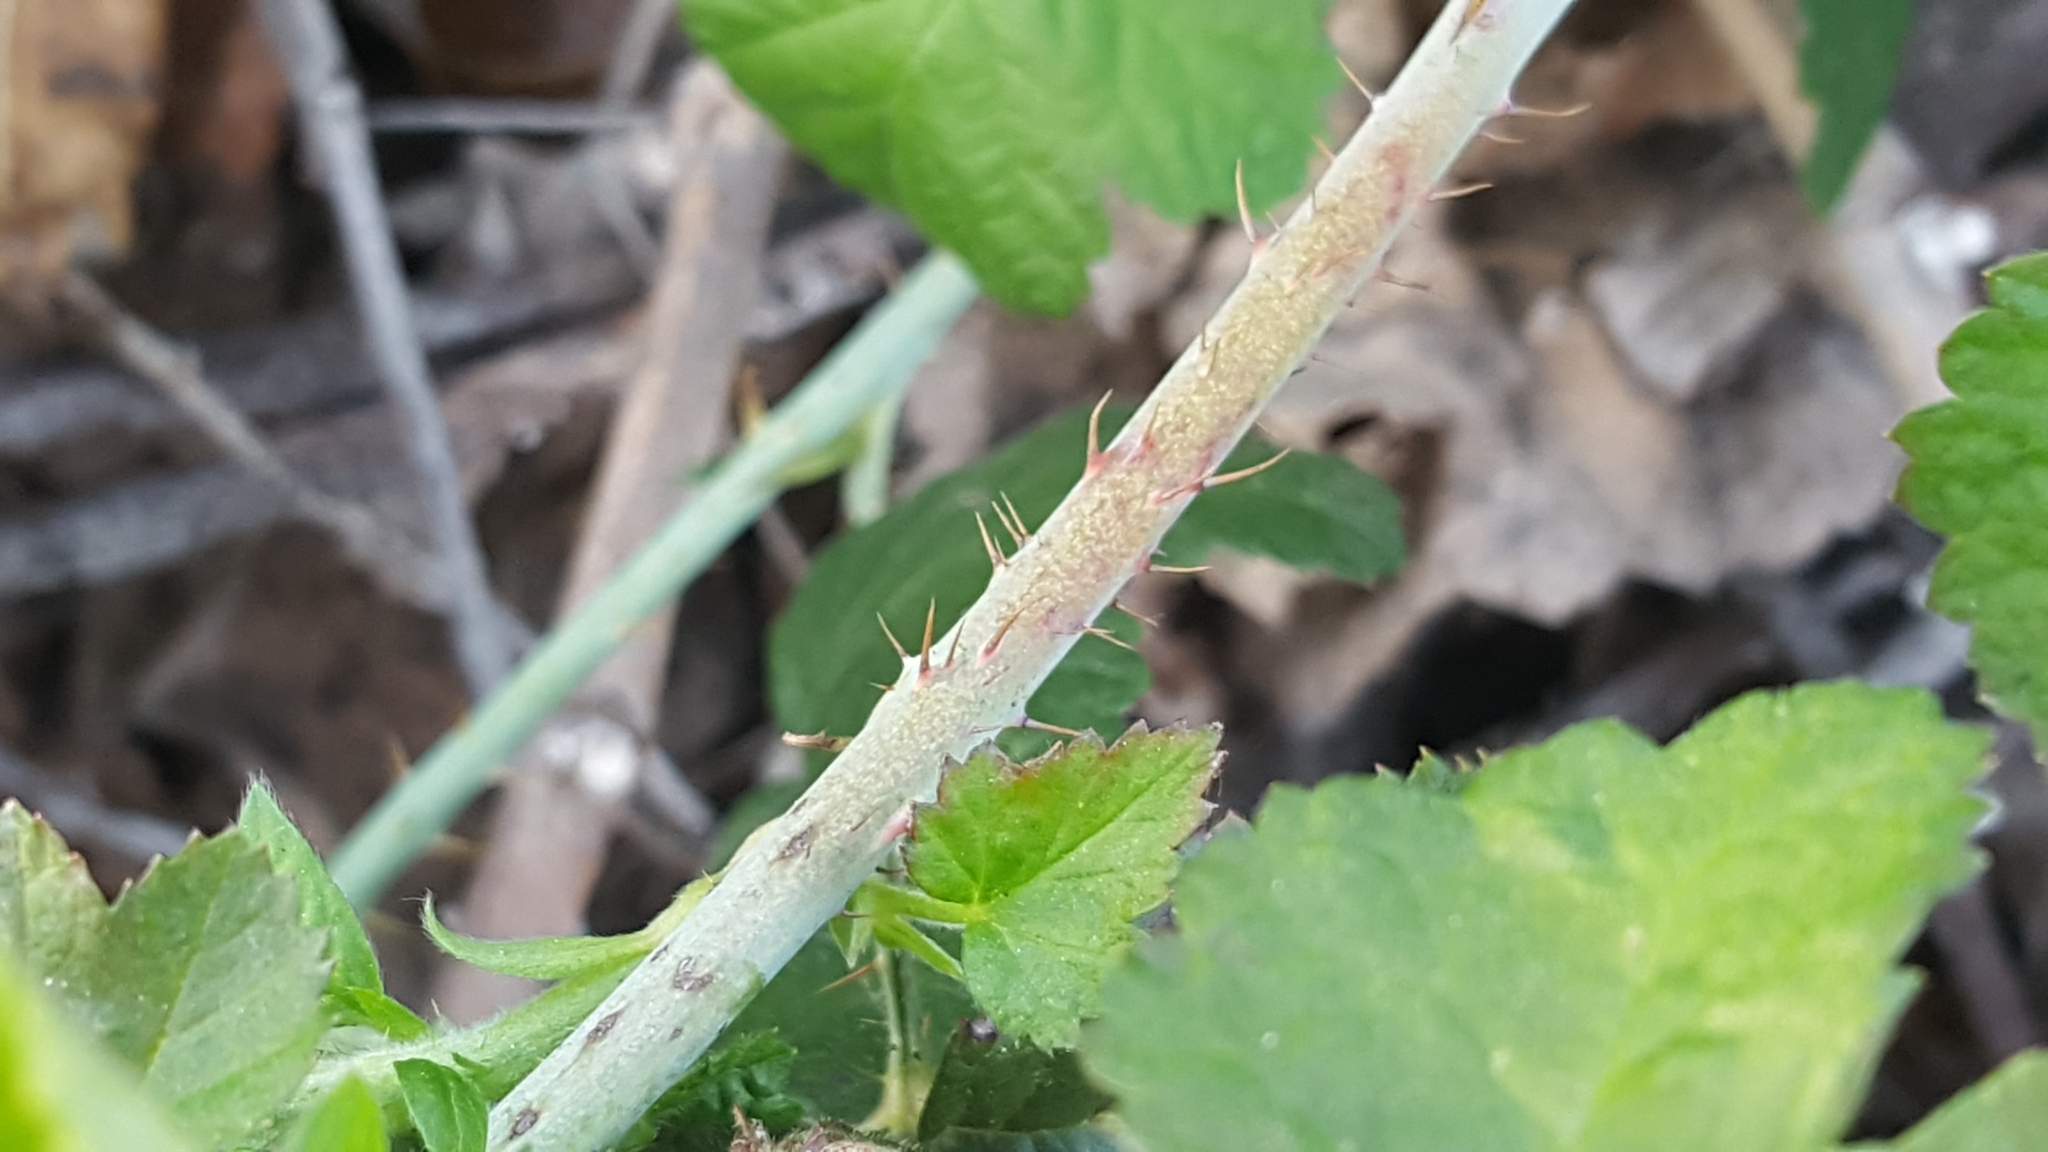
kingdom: Plantae
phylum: Tracheophyta
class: Magnoliopsida
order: Rosales
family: Rosaceae
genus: Rubus
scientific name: Rubus ursinus
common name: Pacific blackberry
